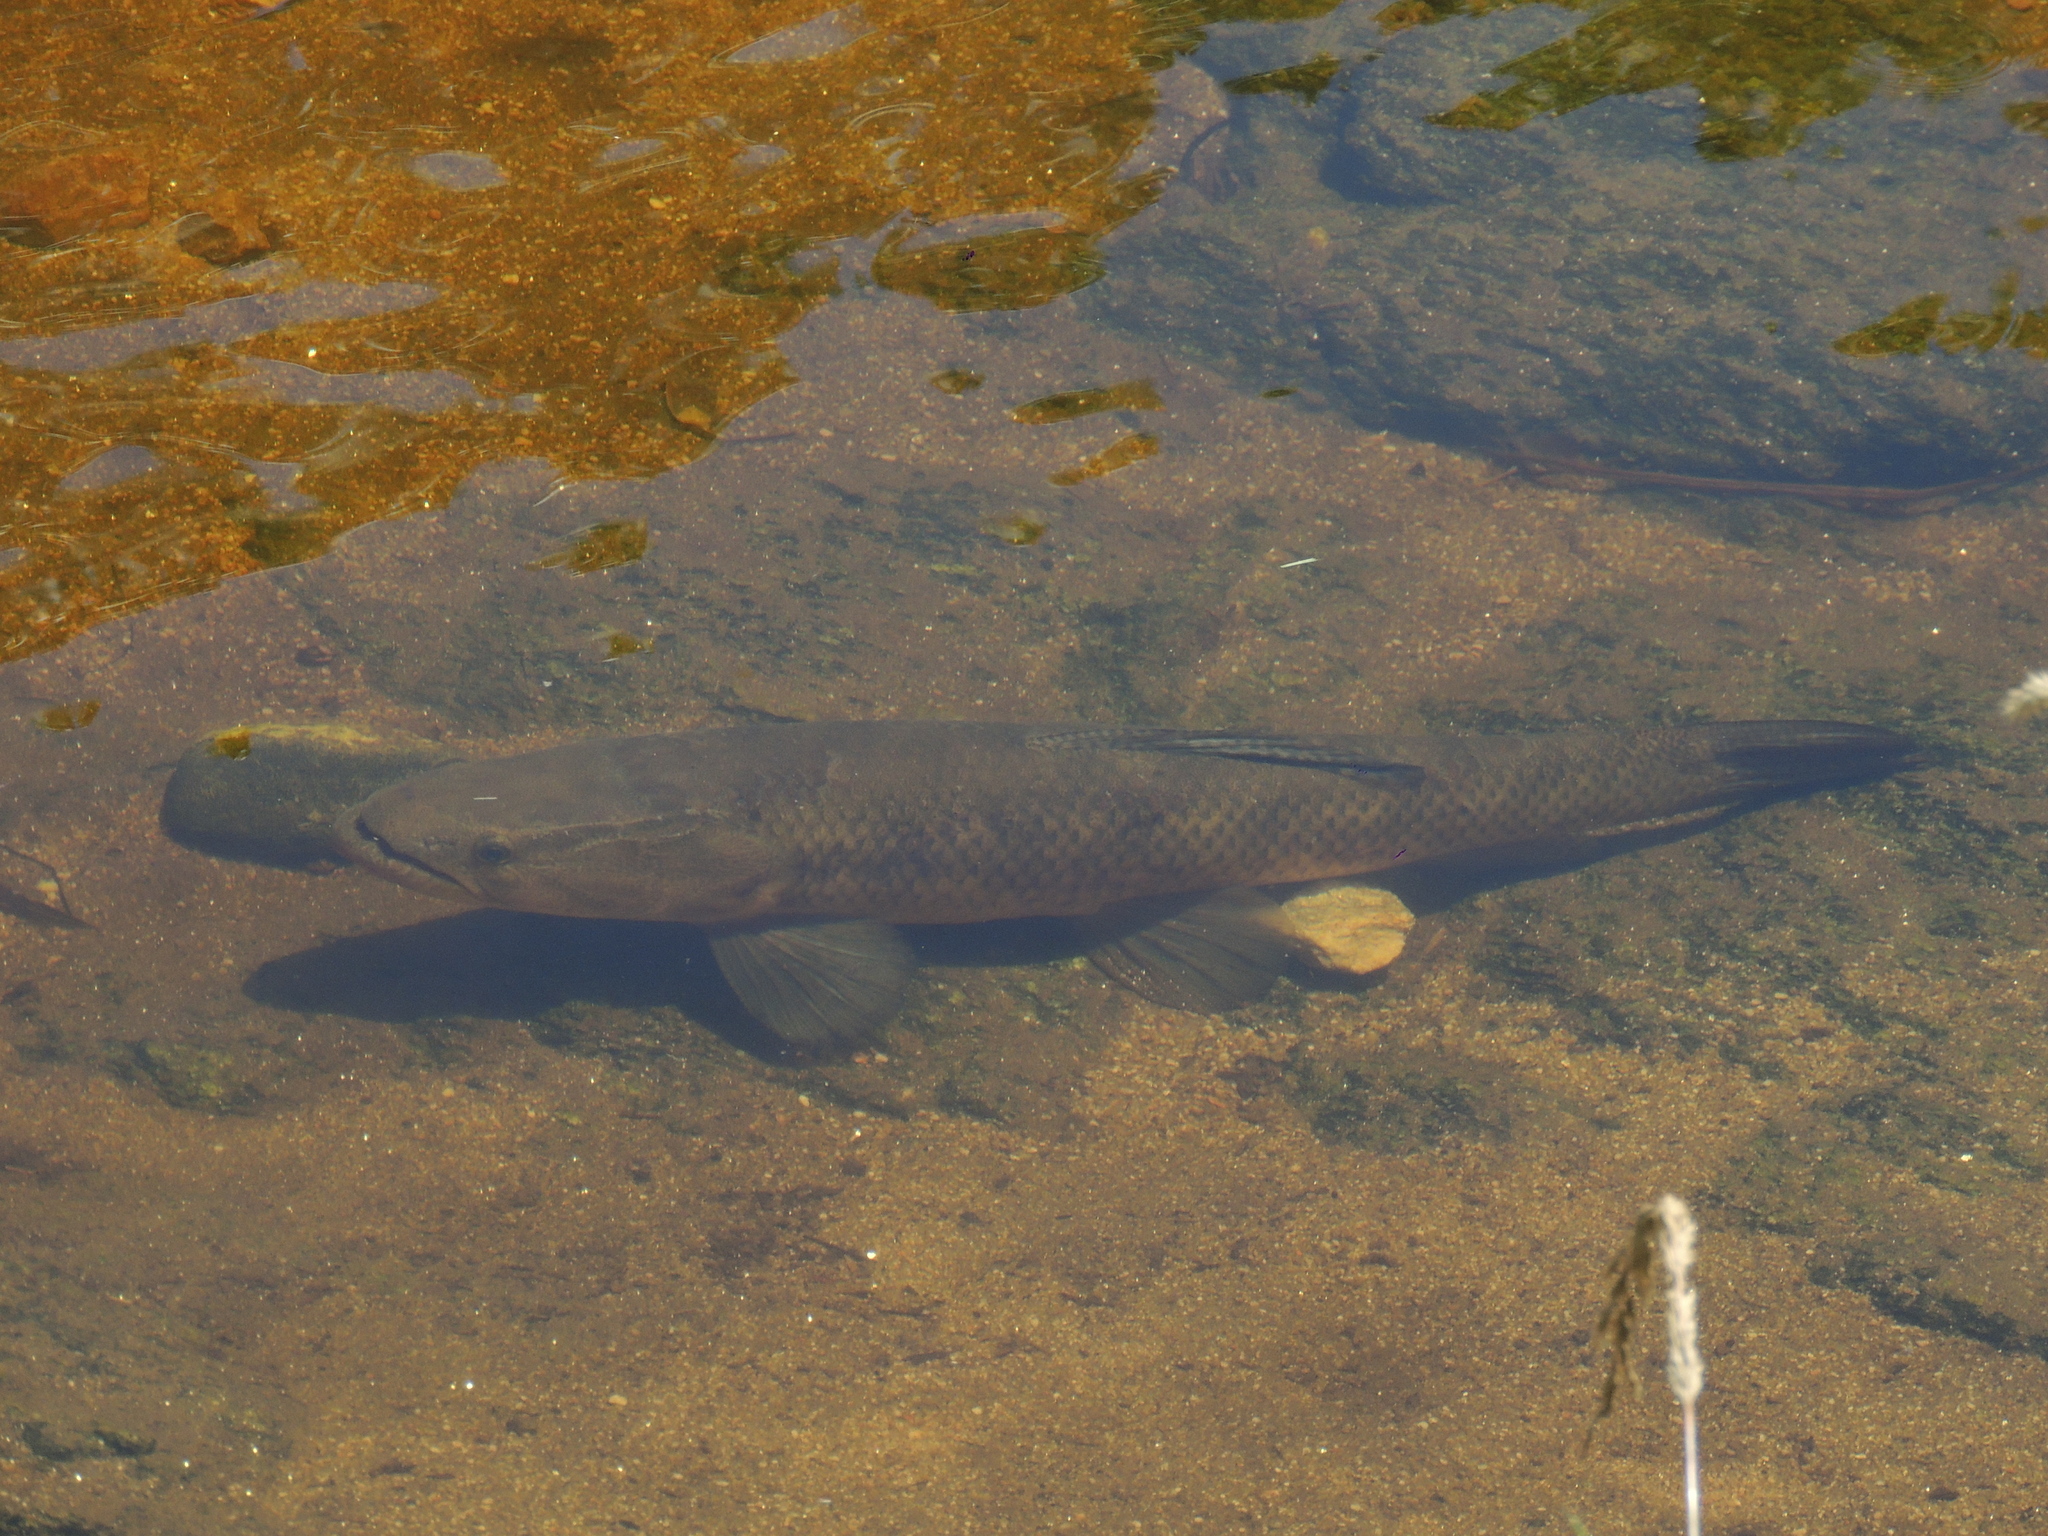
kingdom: Animalia
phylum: Chordata
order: Characiformes
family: Erythrinidae
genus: Hoplias
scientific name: Hoplias argentinensis
